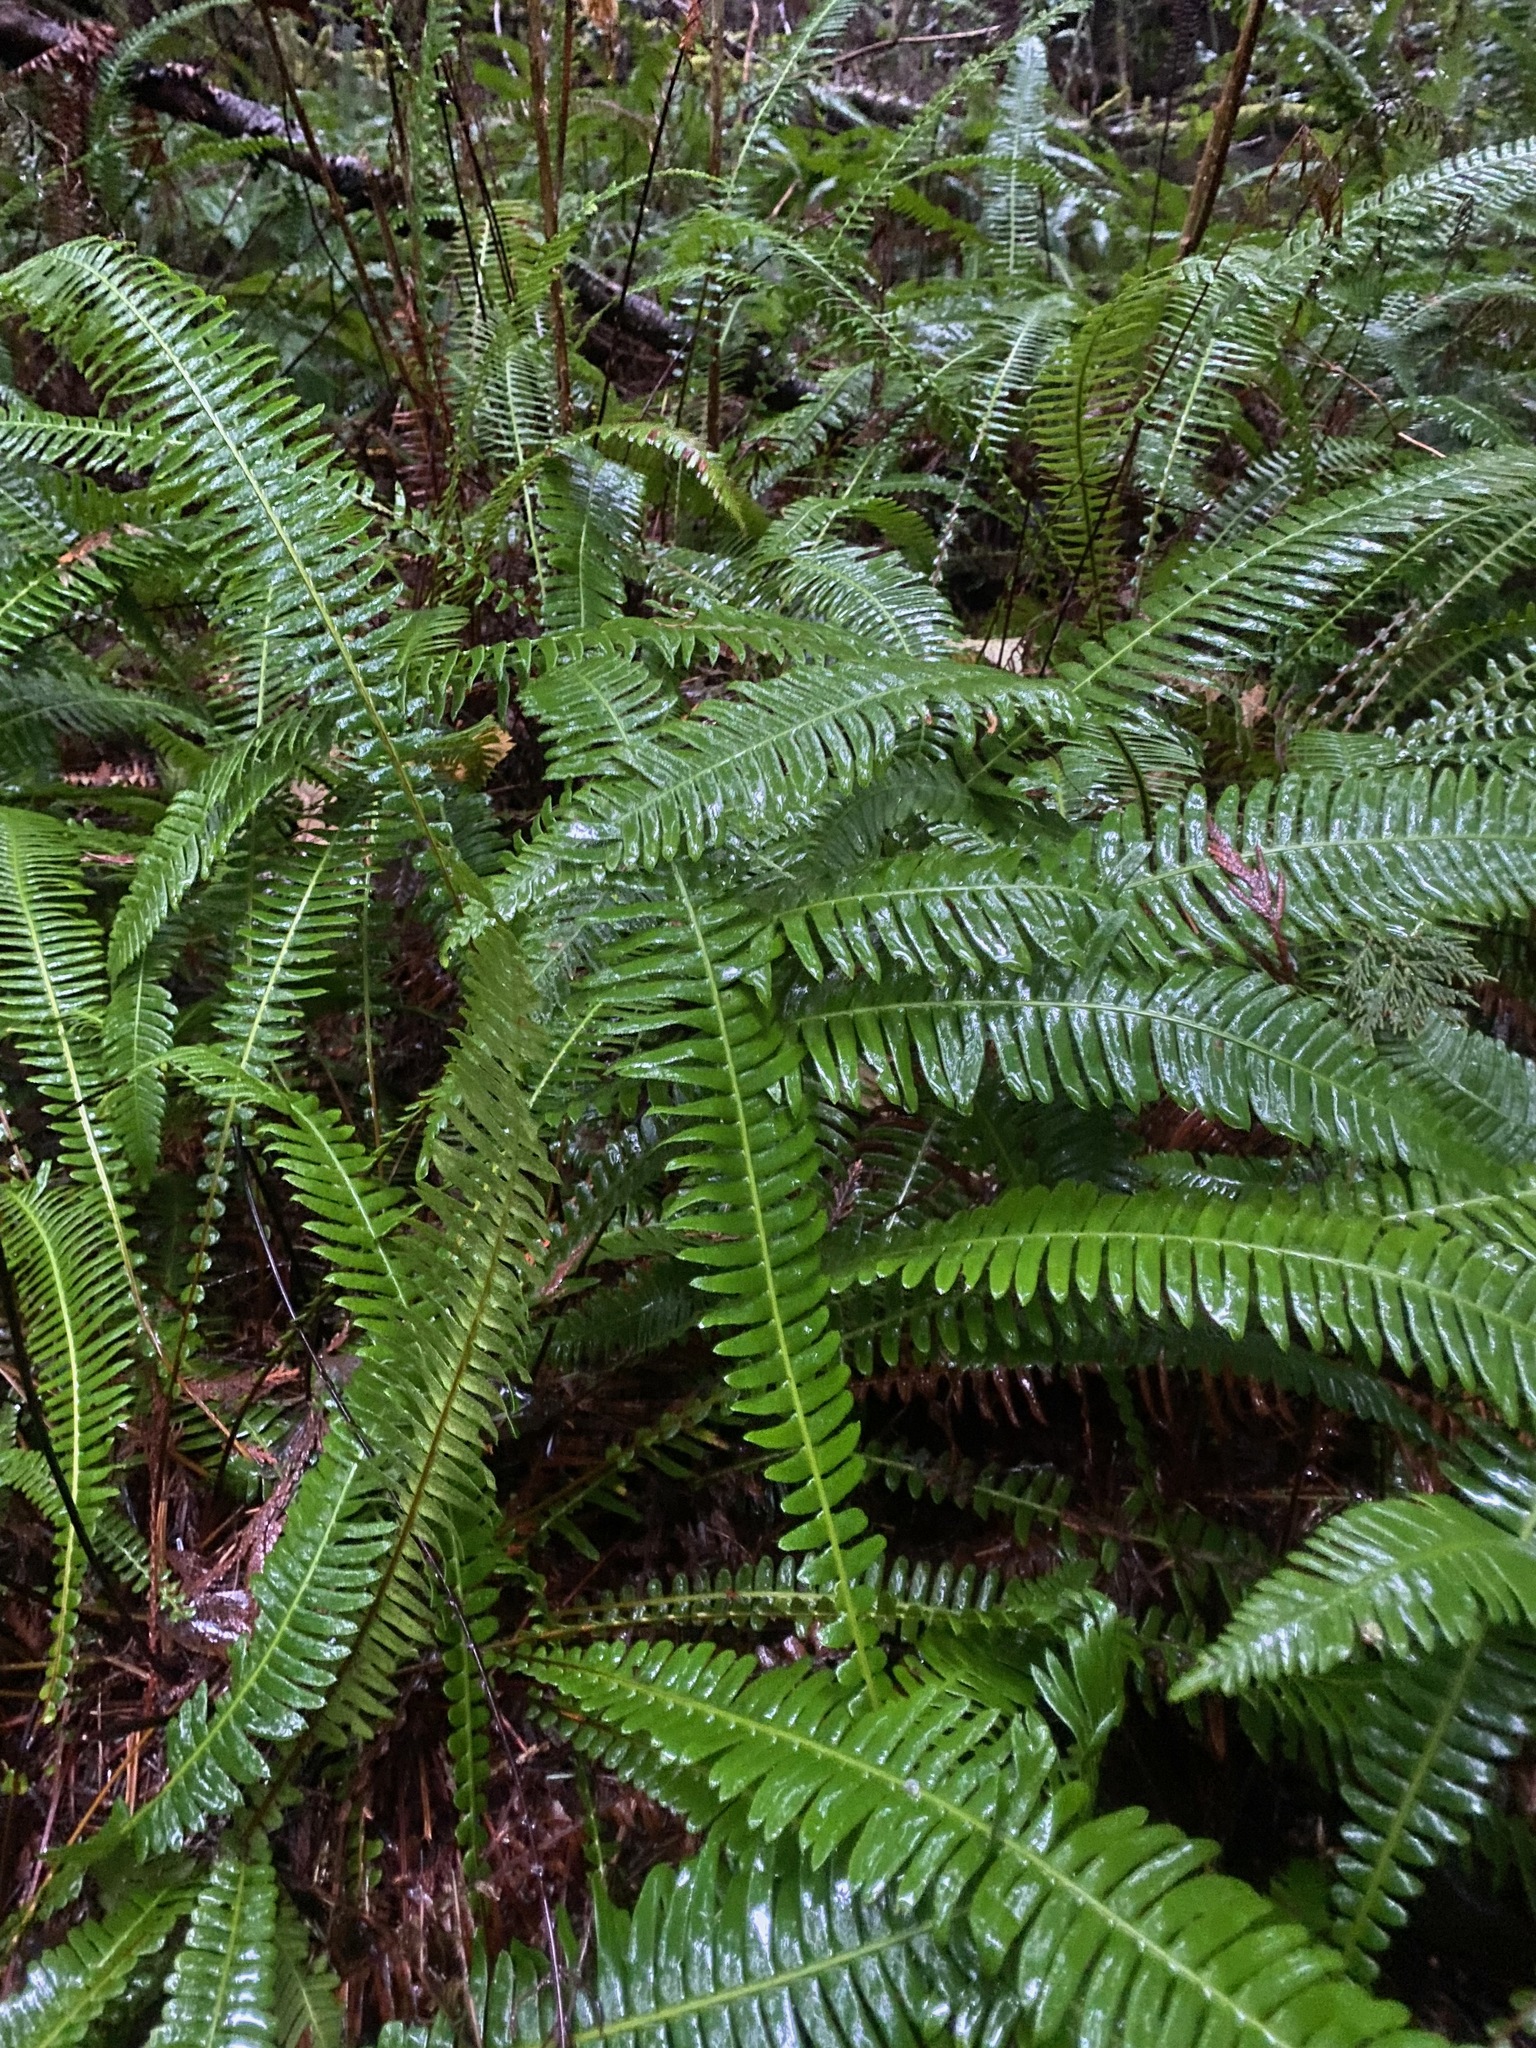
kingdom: Plantae
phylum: Tracheophyta
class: Polypodiopsida
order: Polypodiales
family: Blechnaceae
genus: Struthiopteris
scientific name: Struthiopteris spicant
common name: Deer fern
